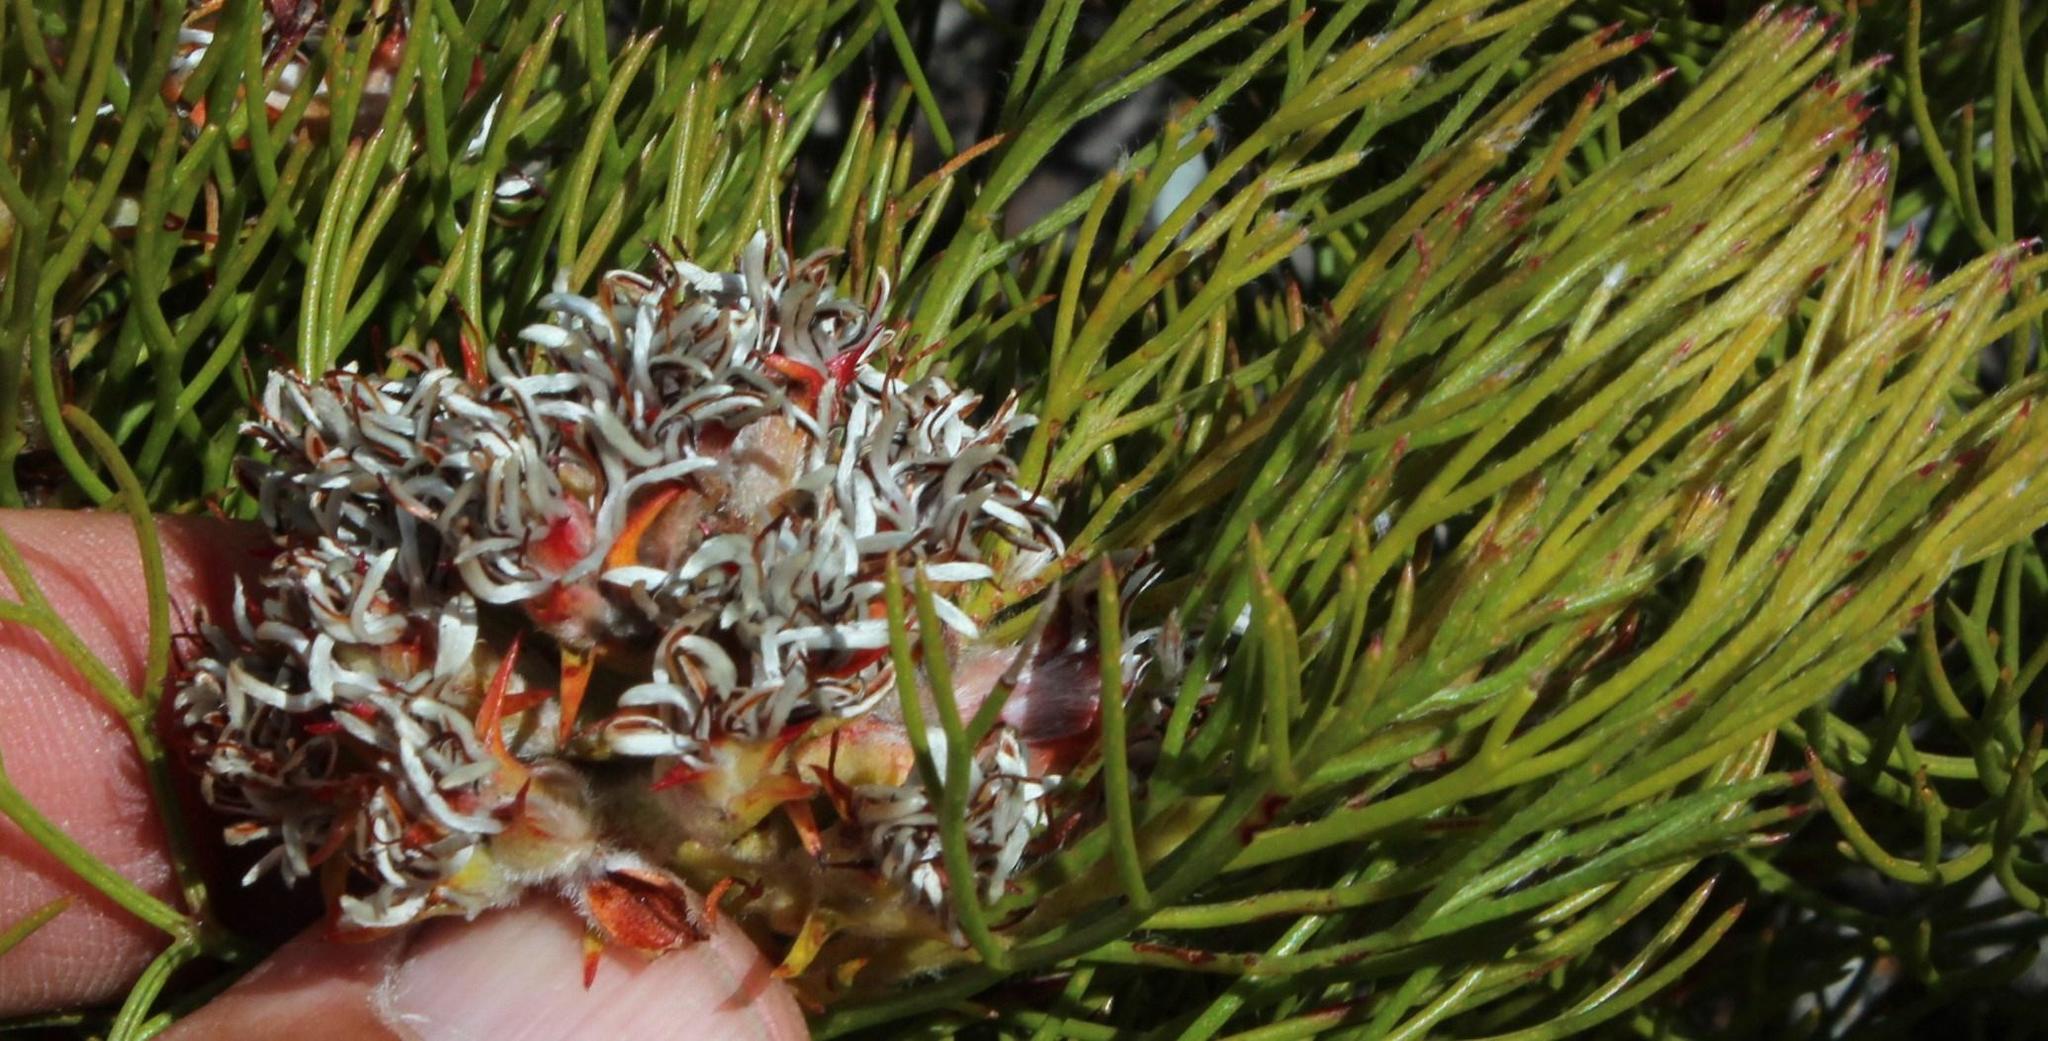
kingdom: Plantae
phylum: Tracheophyta
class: Magnoliopsida
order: Proteales
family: Proteaceae
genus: Serruria
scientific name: Serruria ascendens
